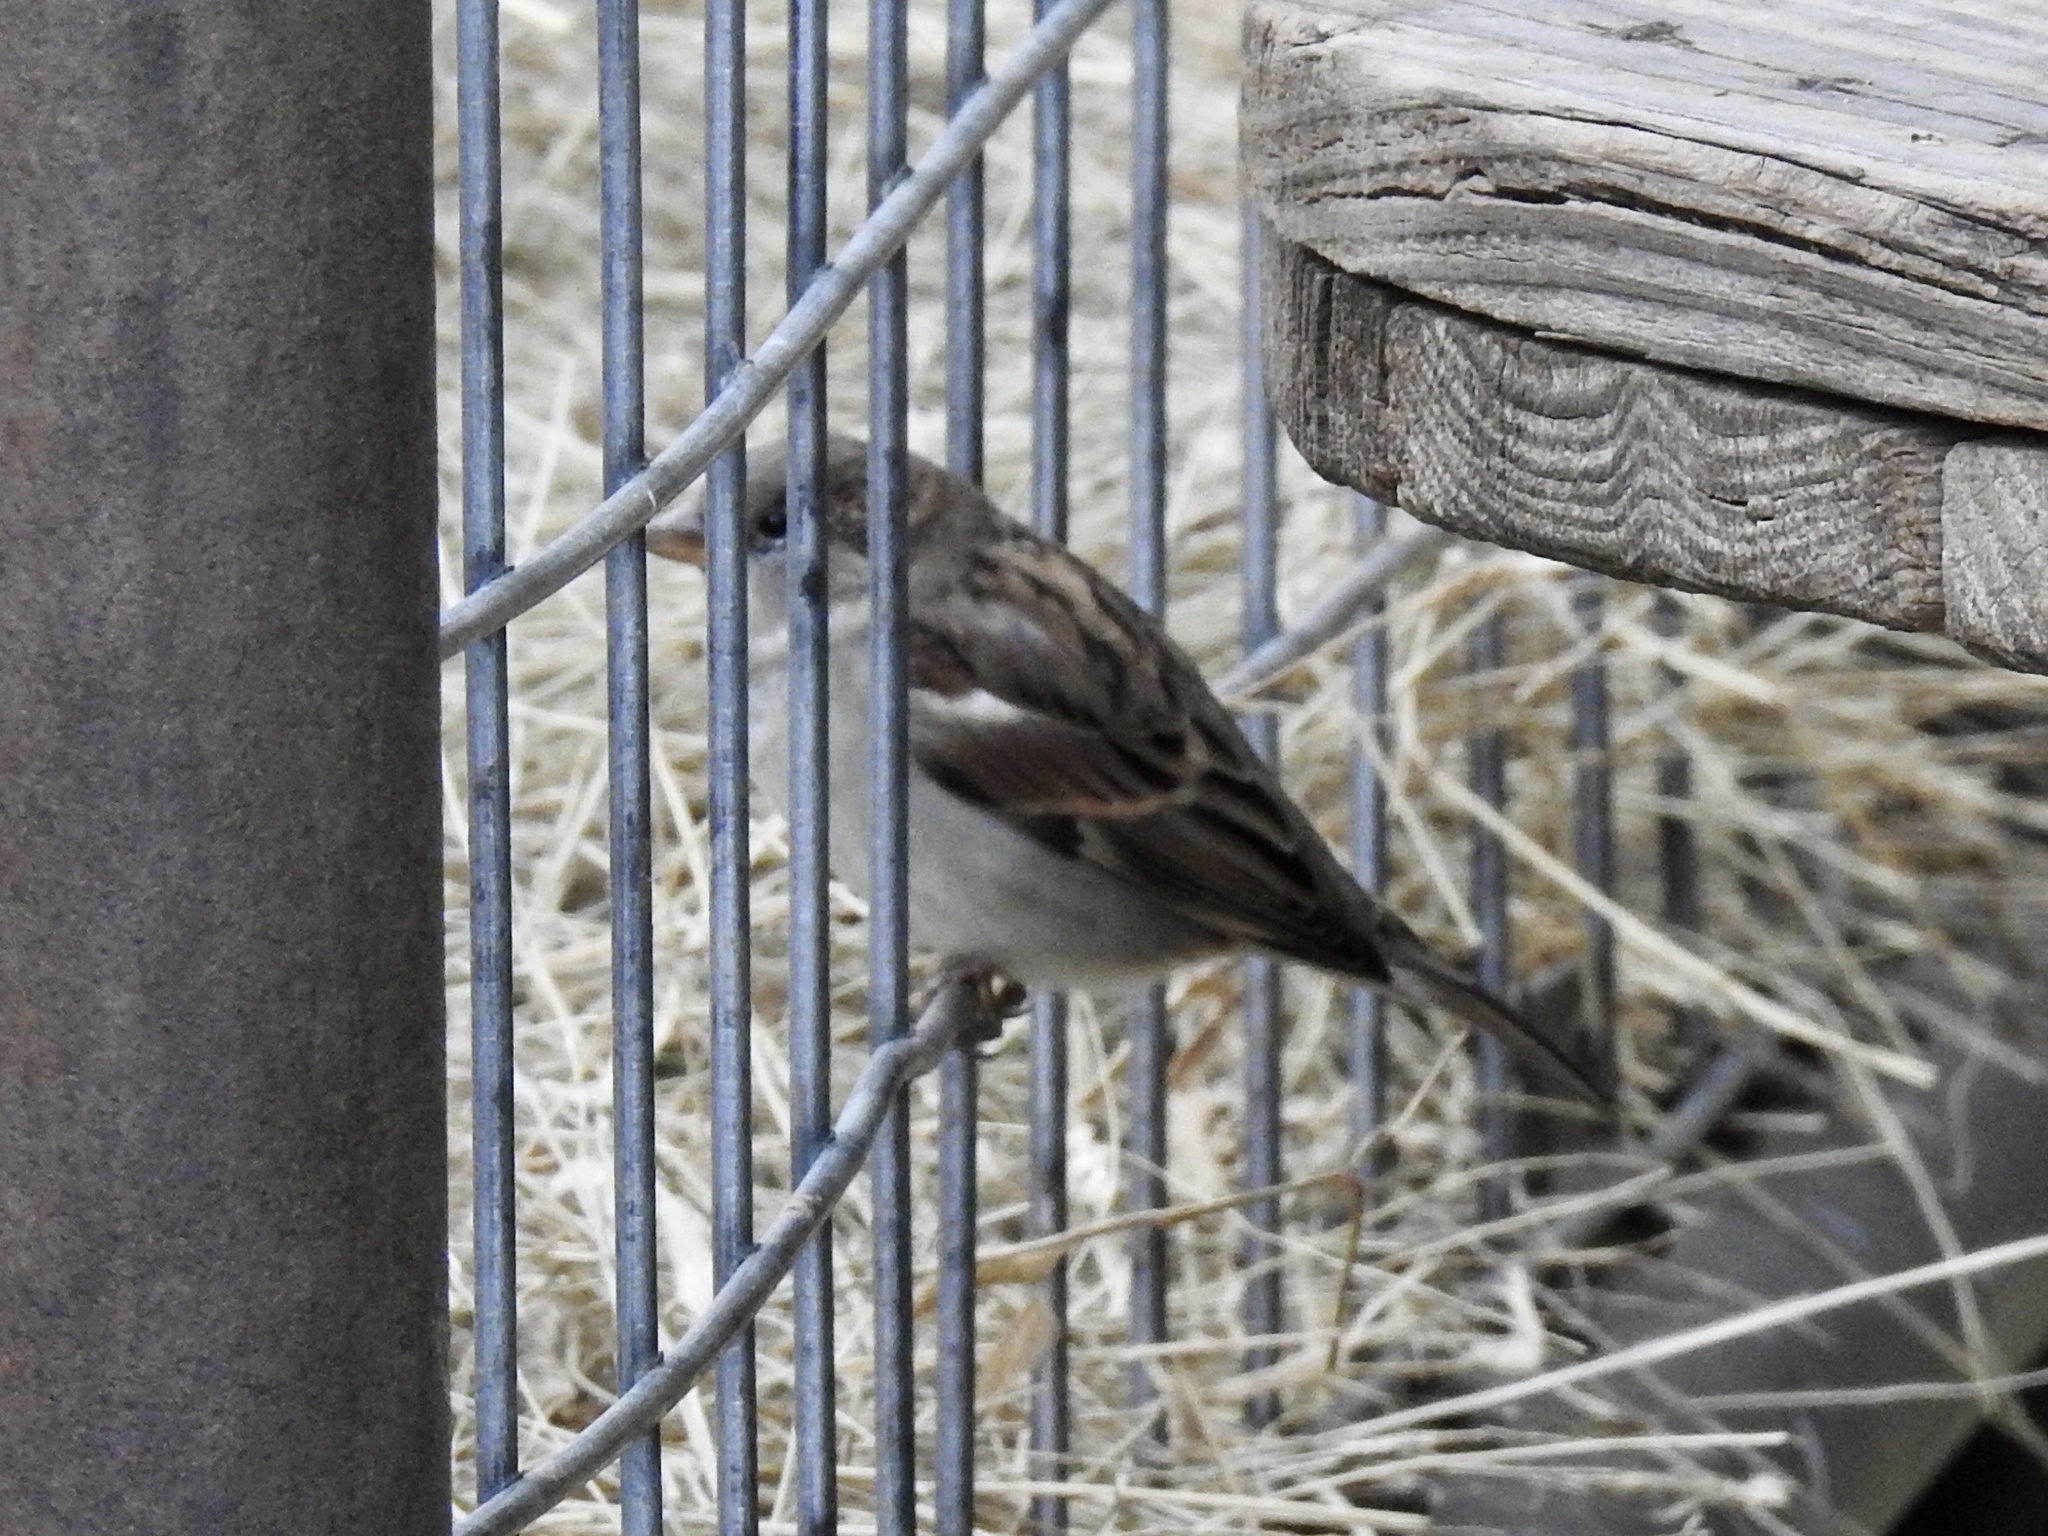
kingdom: Animalia
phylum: Chordata
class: Aves
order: Passeriformes
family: Passeridae
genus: Passer
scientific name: Passer domesticus
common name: House sparrow
